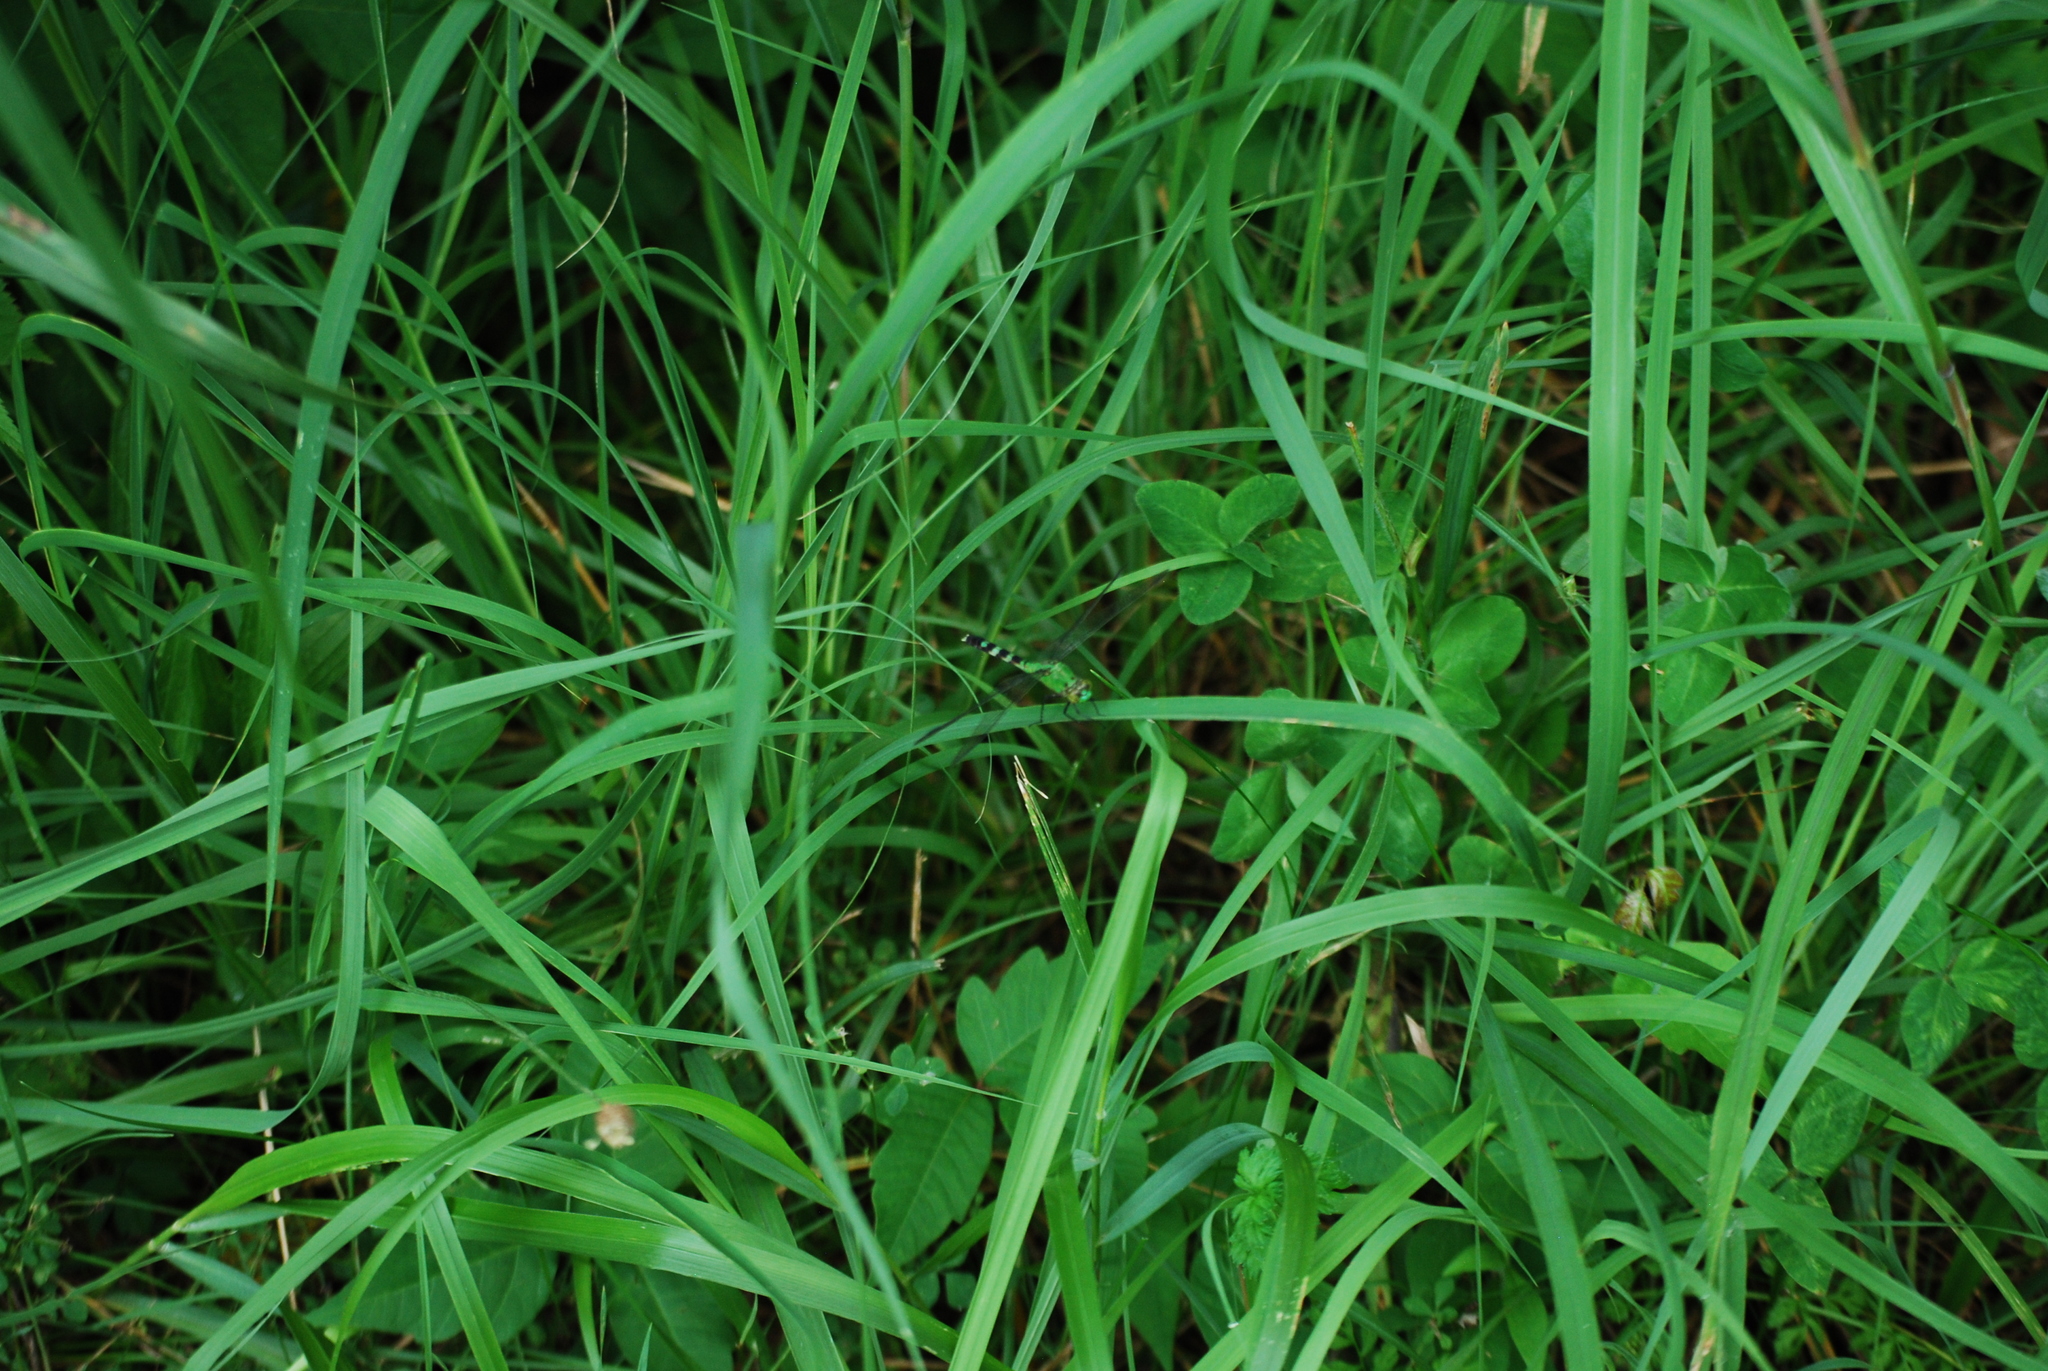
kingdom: Animalia
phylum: Arthropoda
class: Insecta
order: Odonata
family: Libellulidae
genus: Erythemis
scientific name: Erythemis simplicicollis
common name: Eastern pondhawk
